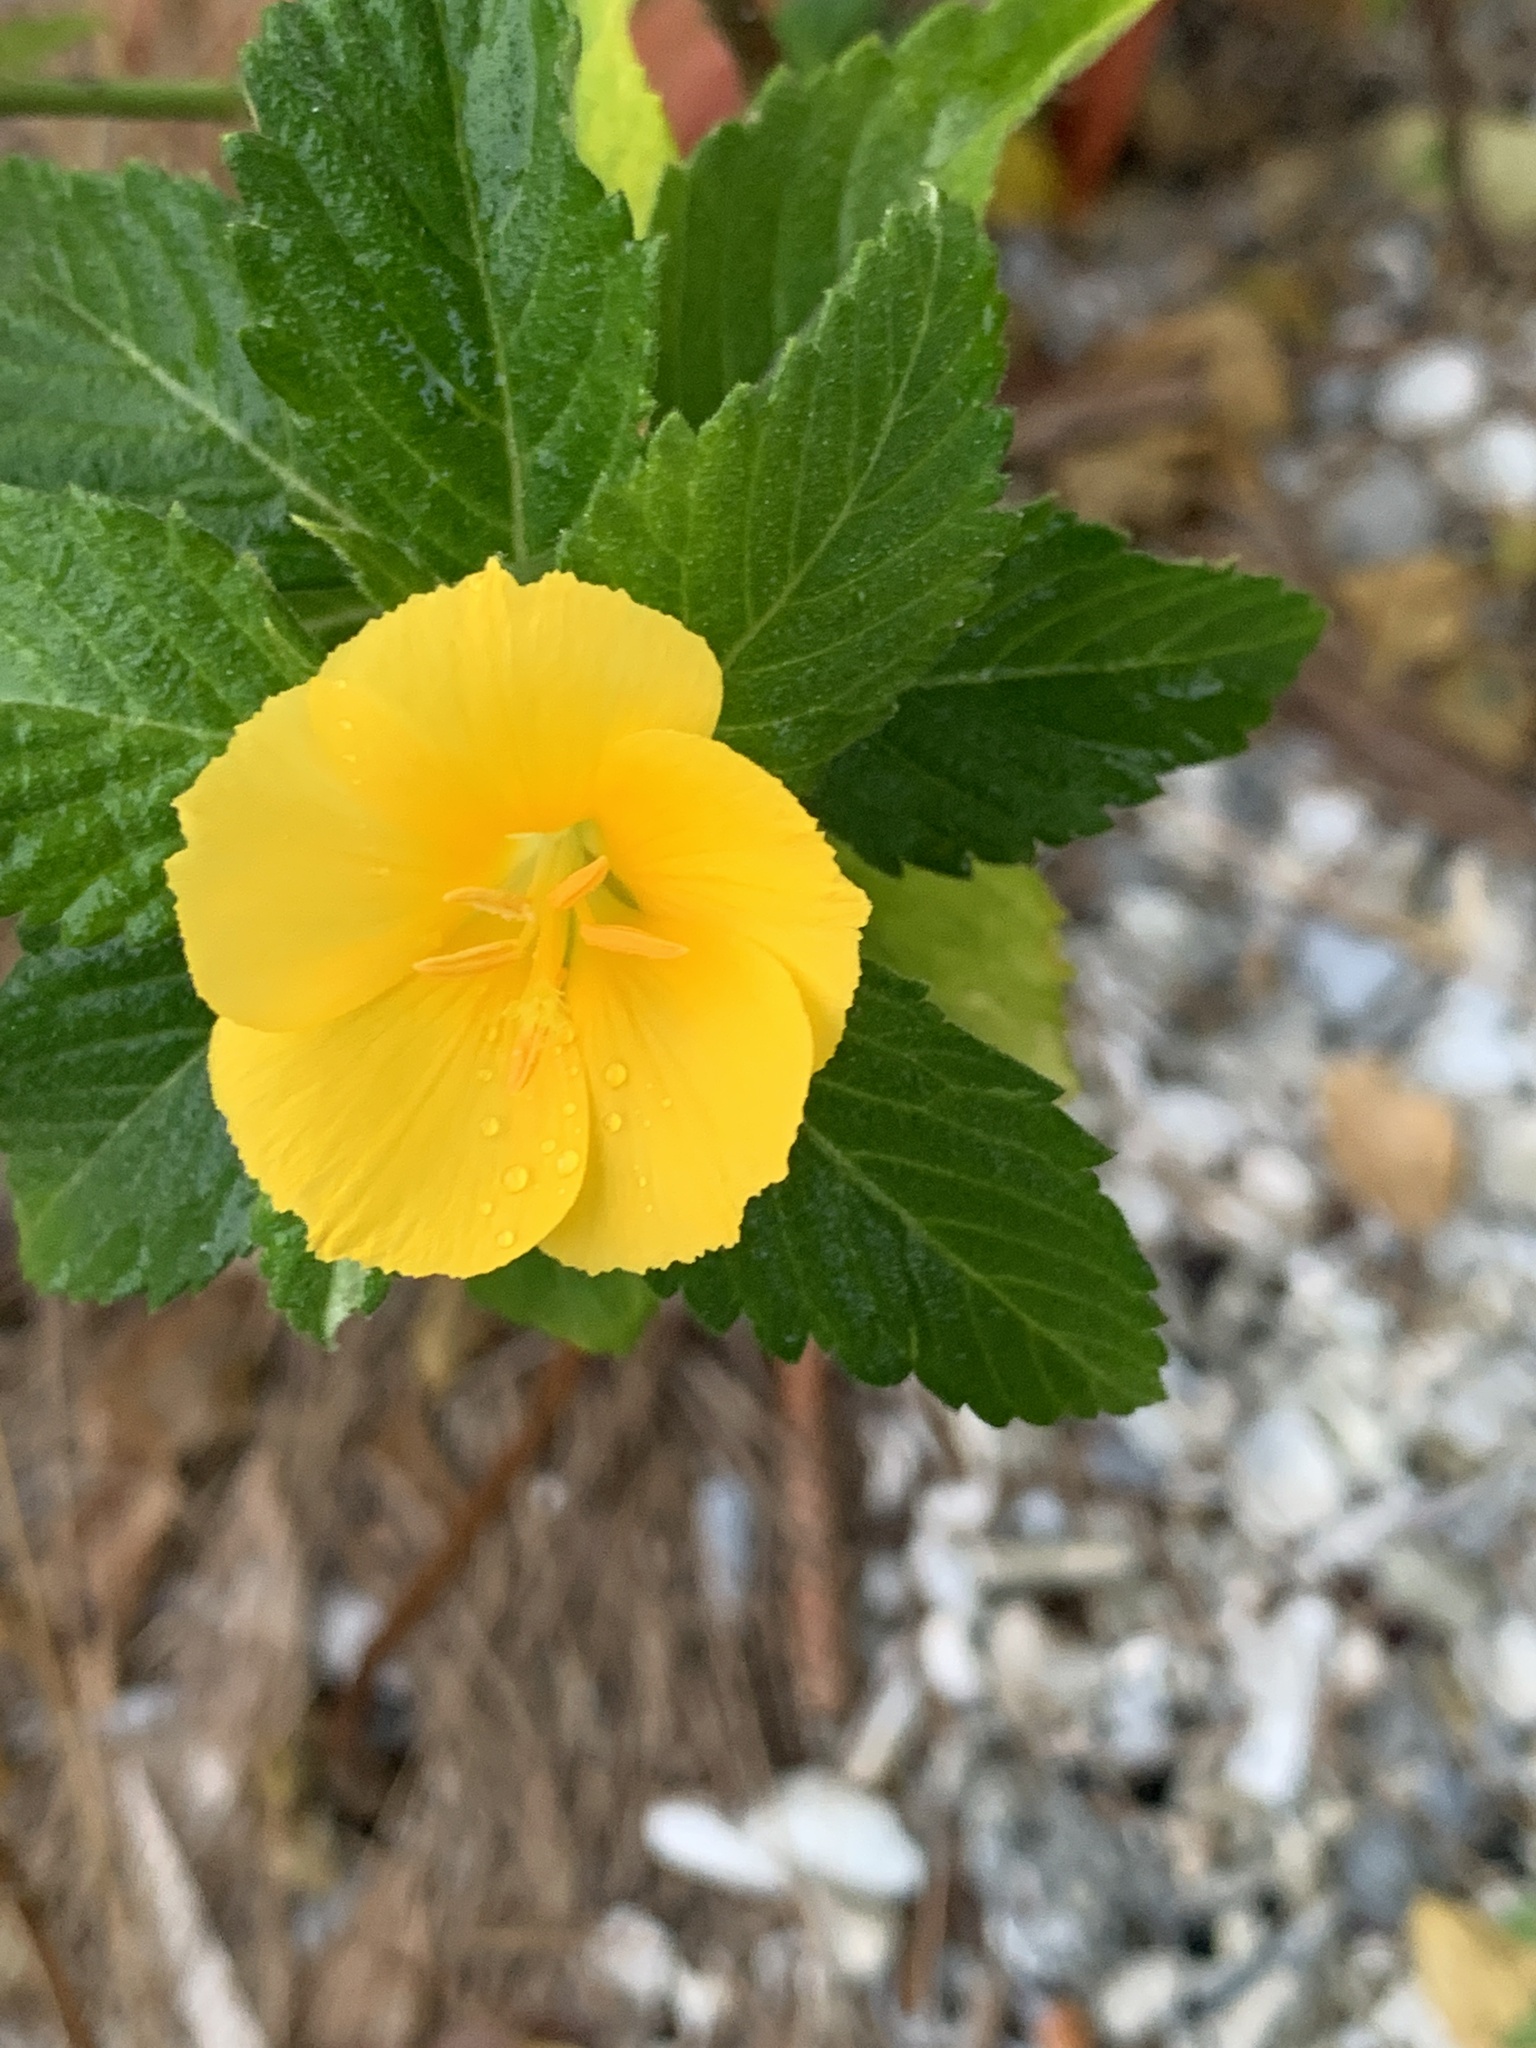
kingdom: Plantae
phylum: Tracheophyta
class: Magnoliopsida
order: Malpighiales
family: Turneraceae
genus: Turnera
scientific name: Turnera ulmifolia
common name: Ramgoat dashalong
